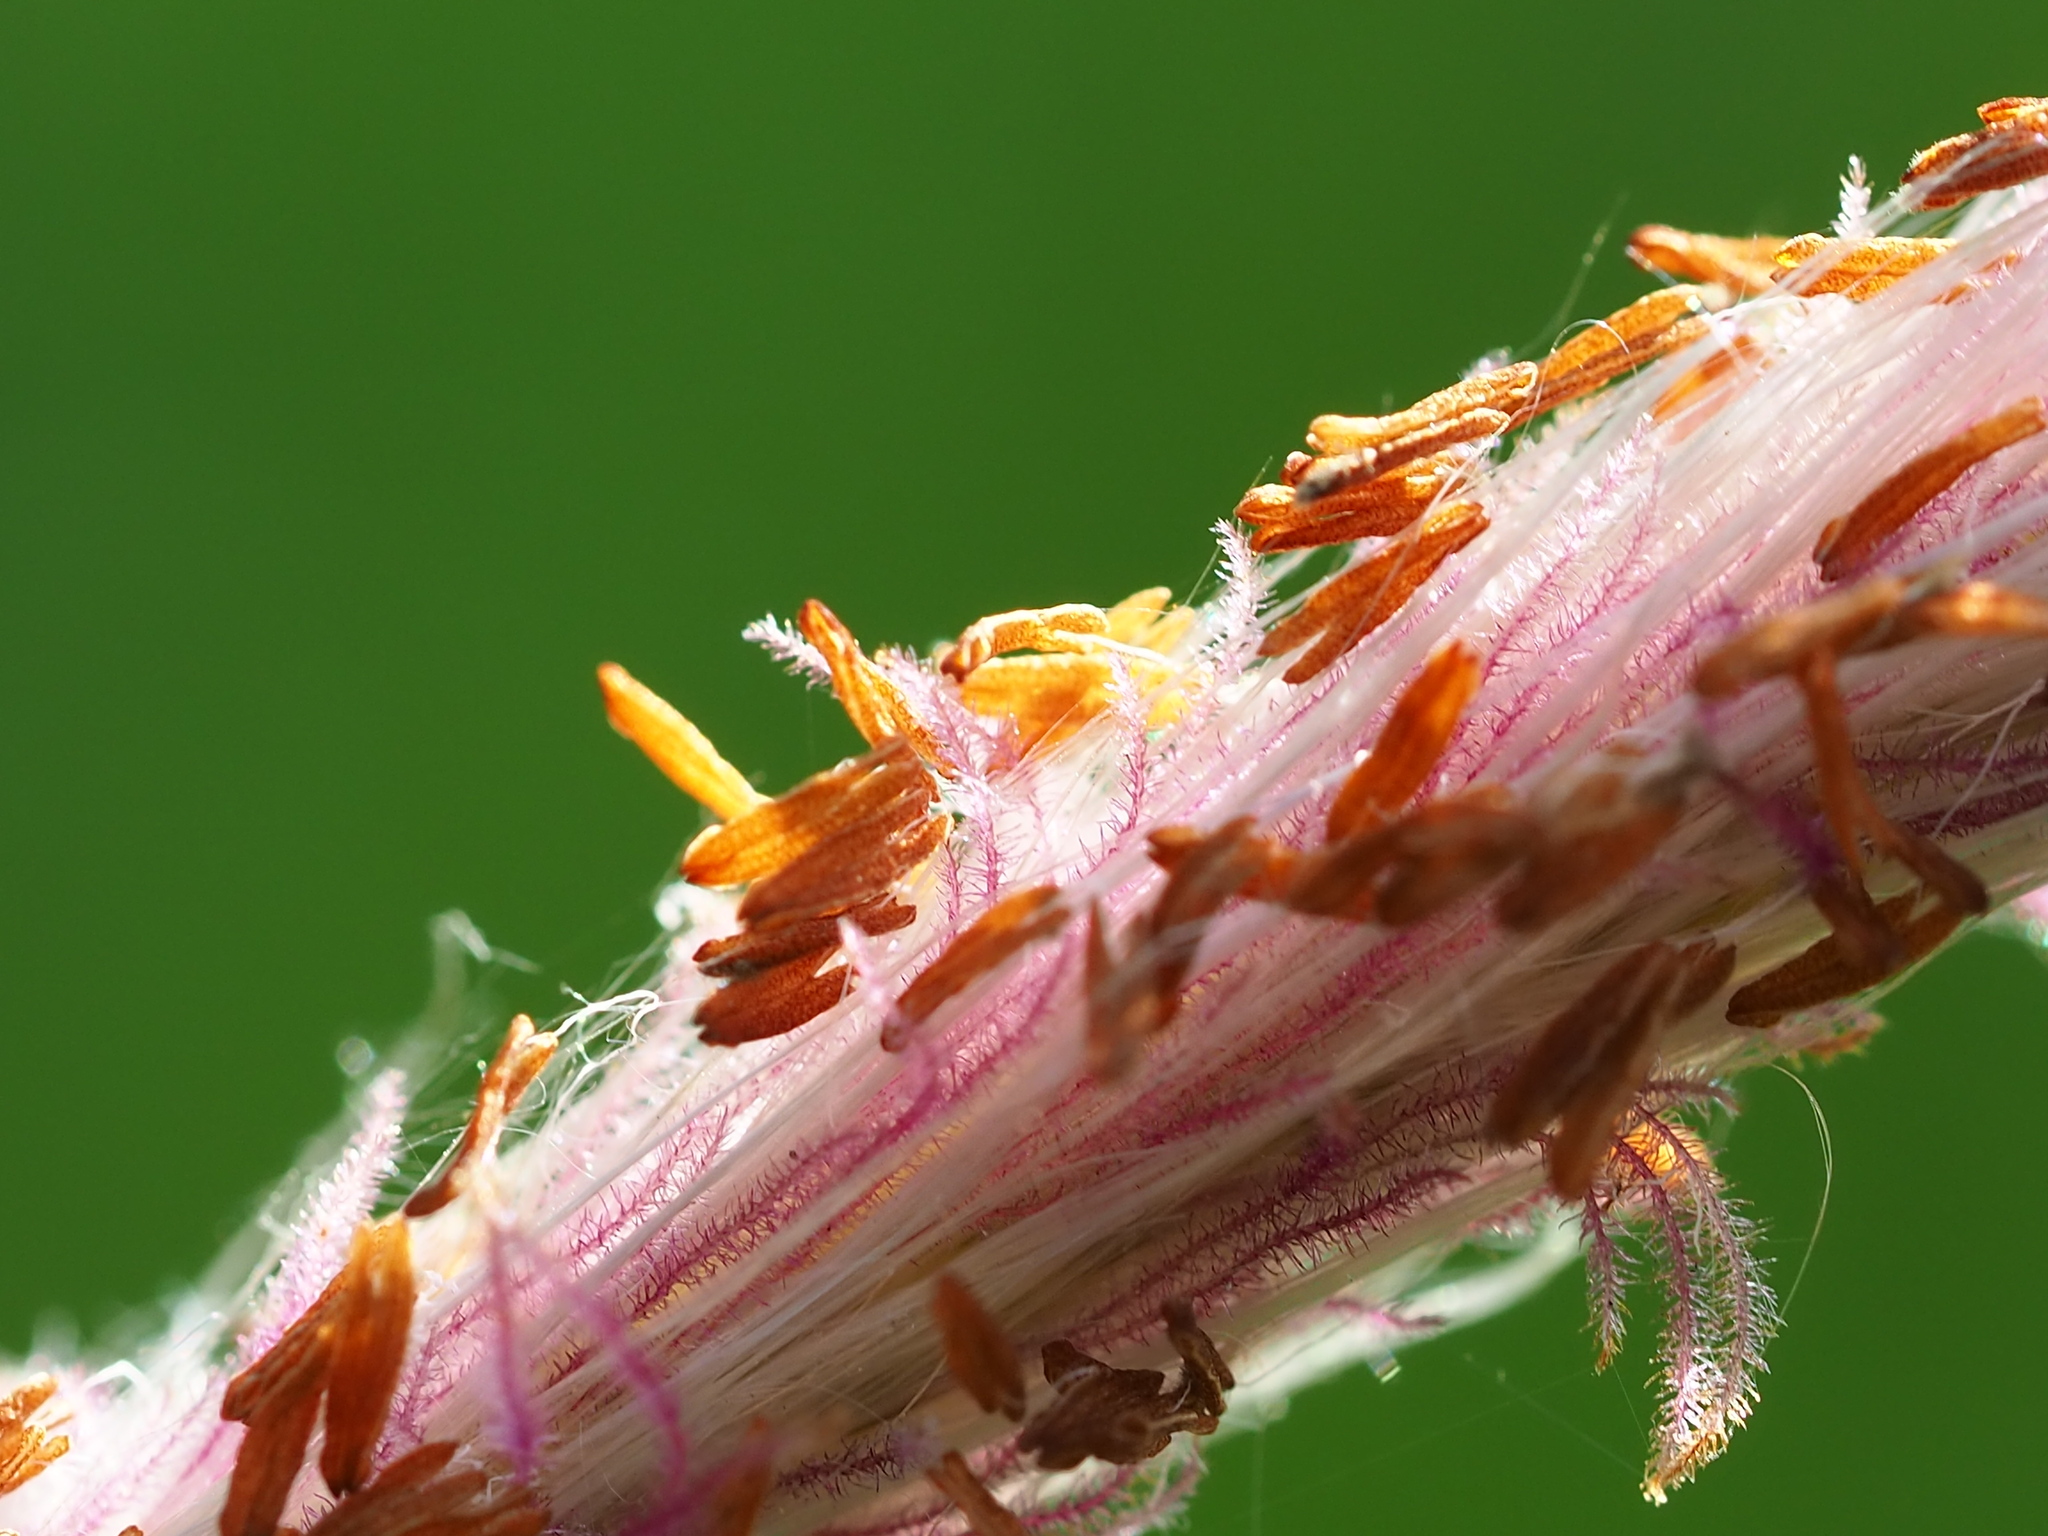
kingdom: Plantae
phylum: Tracheophyta
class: Liliopsida
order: Poales
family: Poaceae
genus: Imperata
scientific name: Imperata cylindrica
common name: Cogongrass
